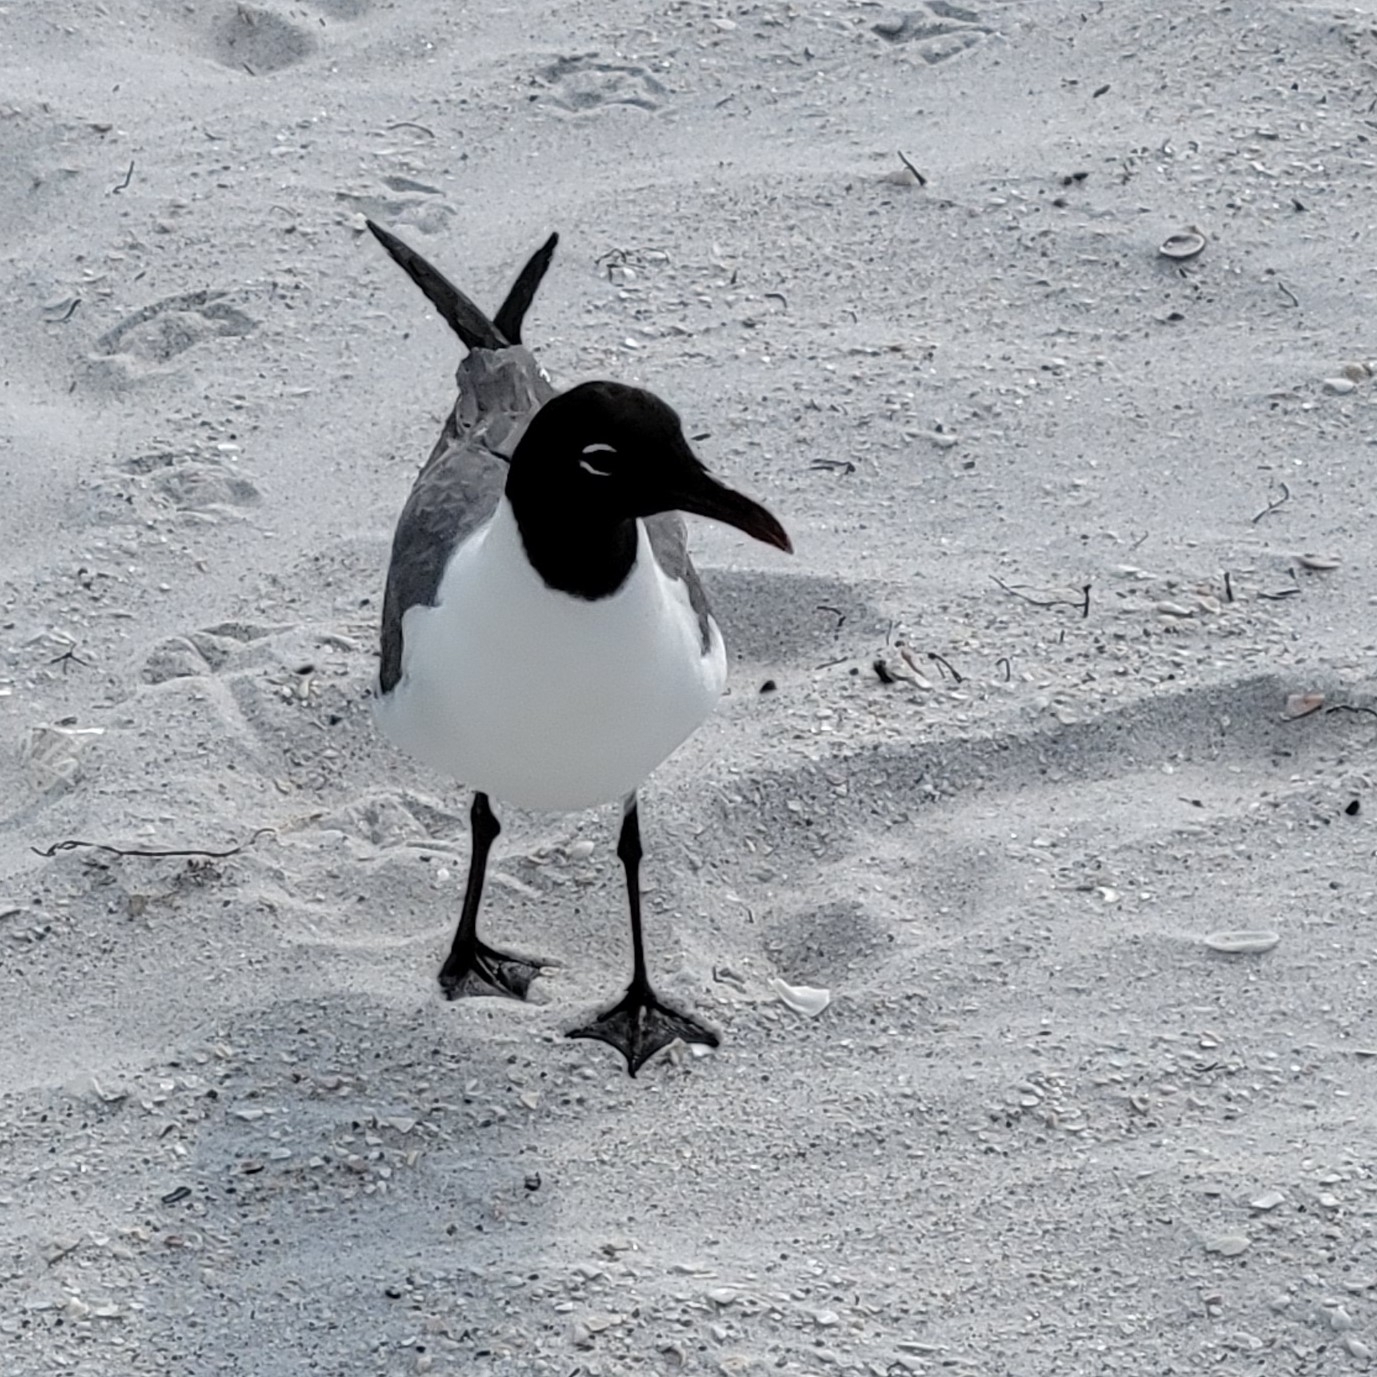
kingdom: Animalia
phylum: Chordata
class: Aves
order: Charadriiformes
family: Laridae
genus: Leucophaeus
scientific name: Leucophaeus atricilla
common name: Laughing gull
